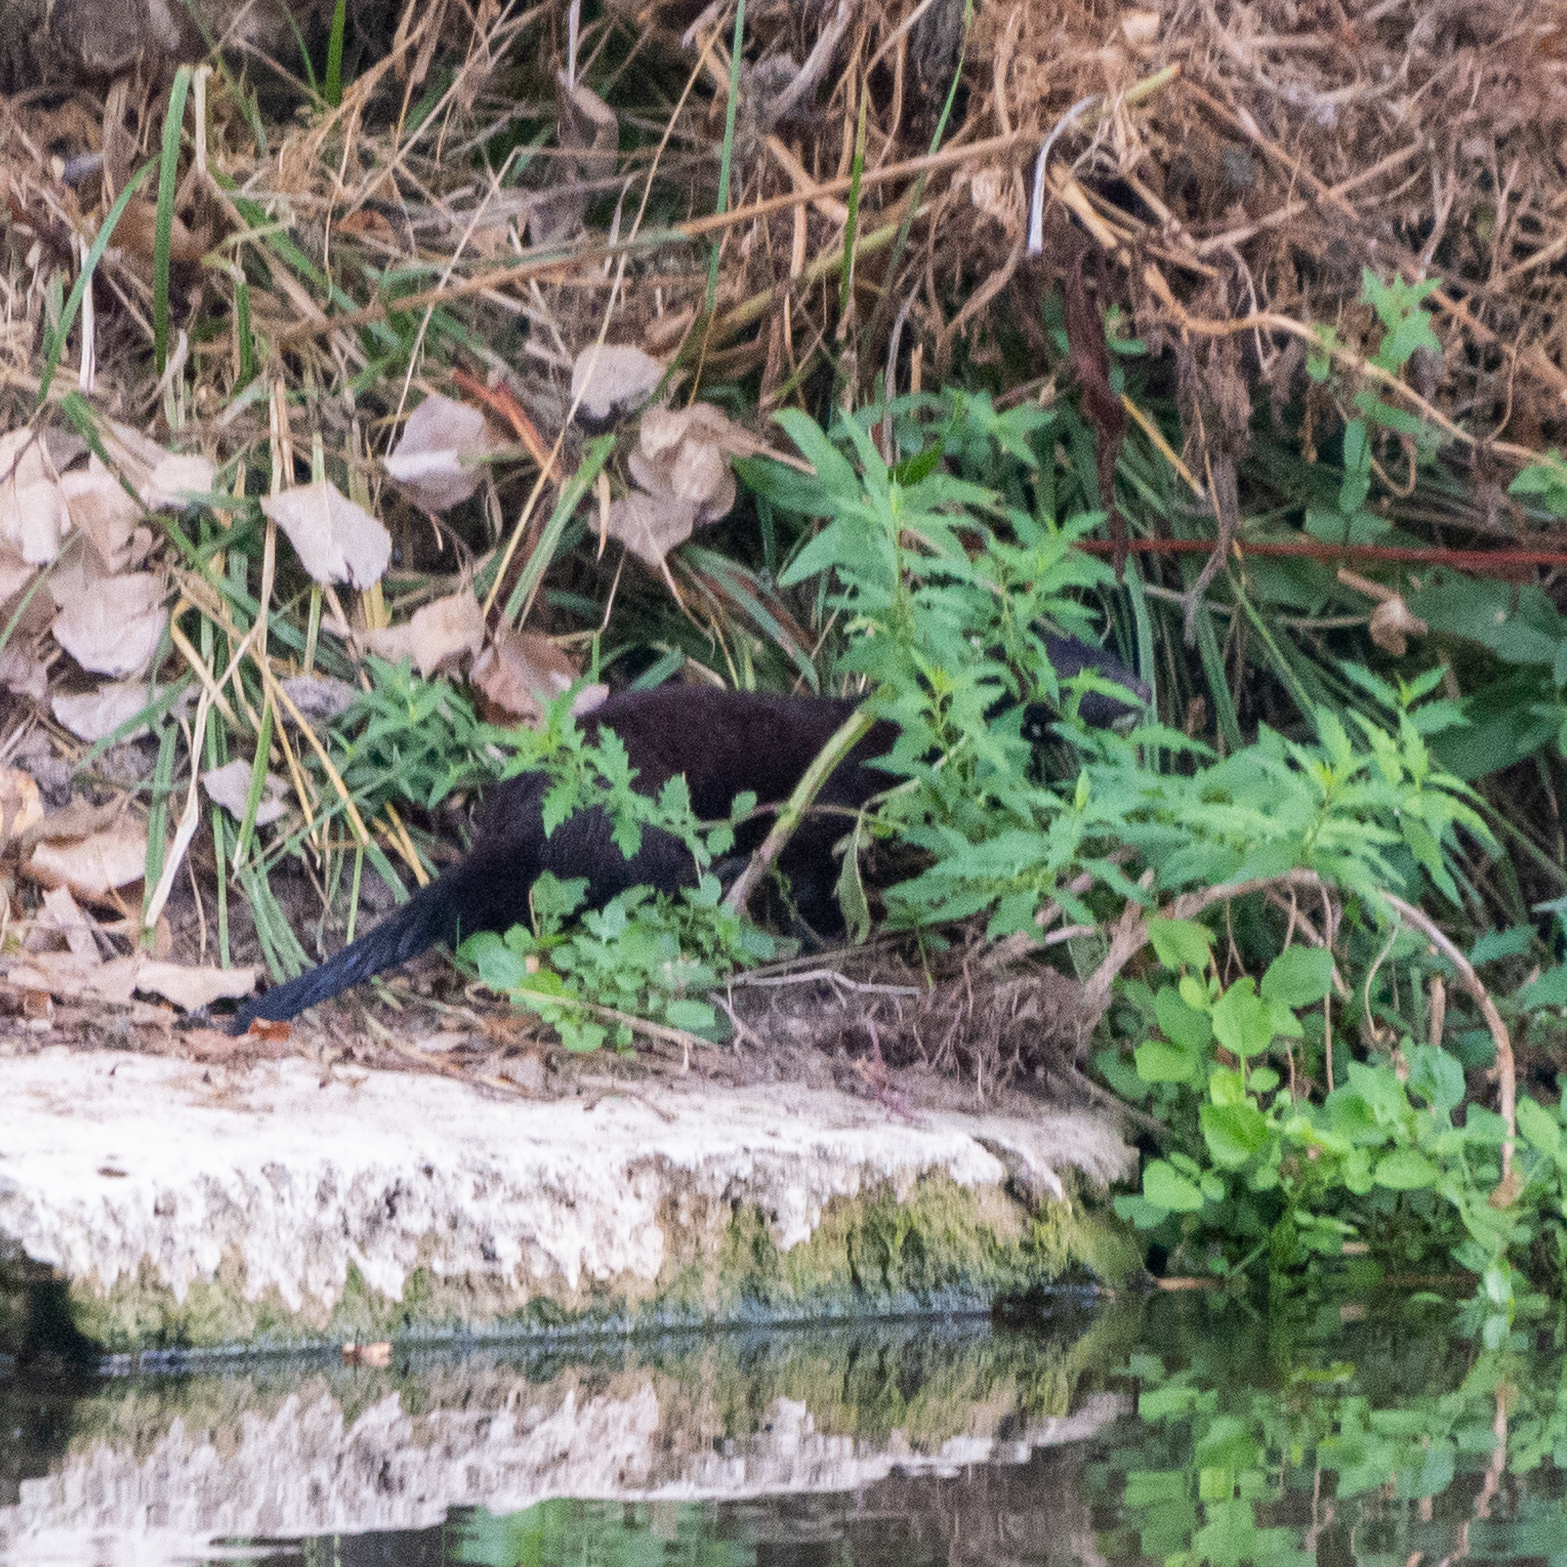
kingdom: Animalia
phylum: Chordata
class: Mammalia
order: Carnivora
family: Mustelidae
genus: Mustela
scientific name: Mustela
